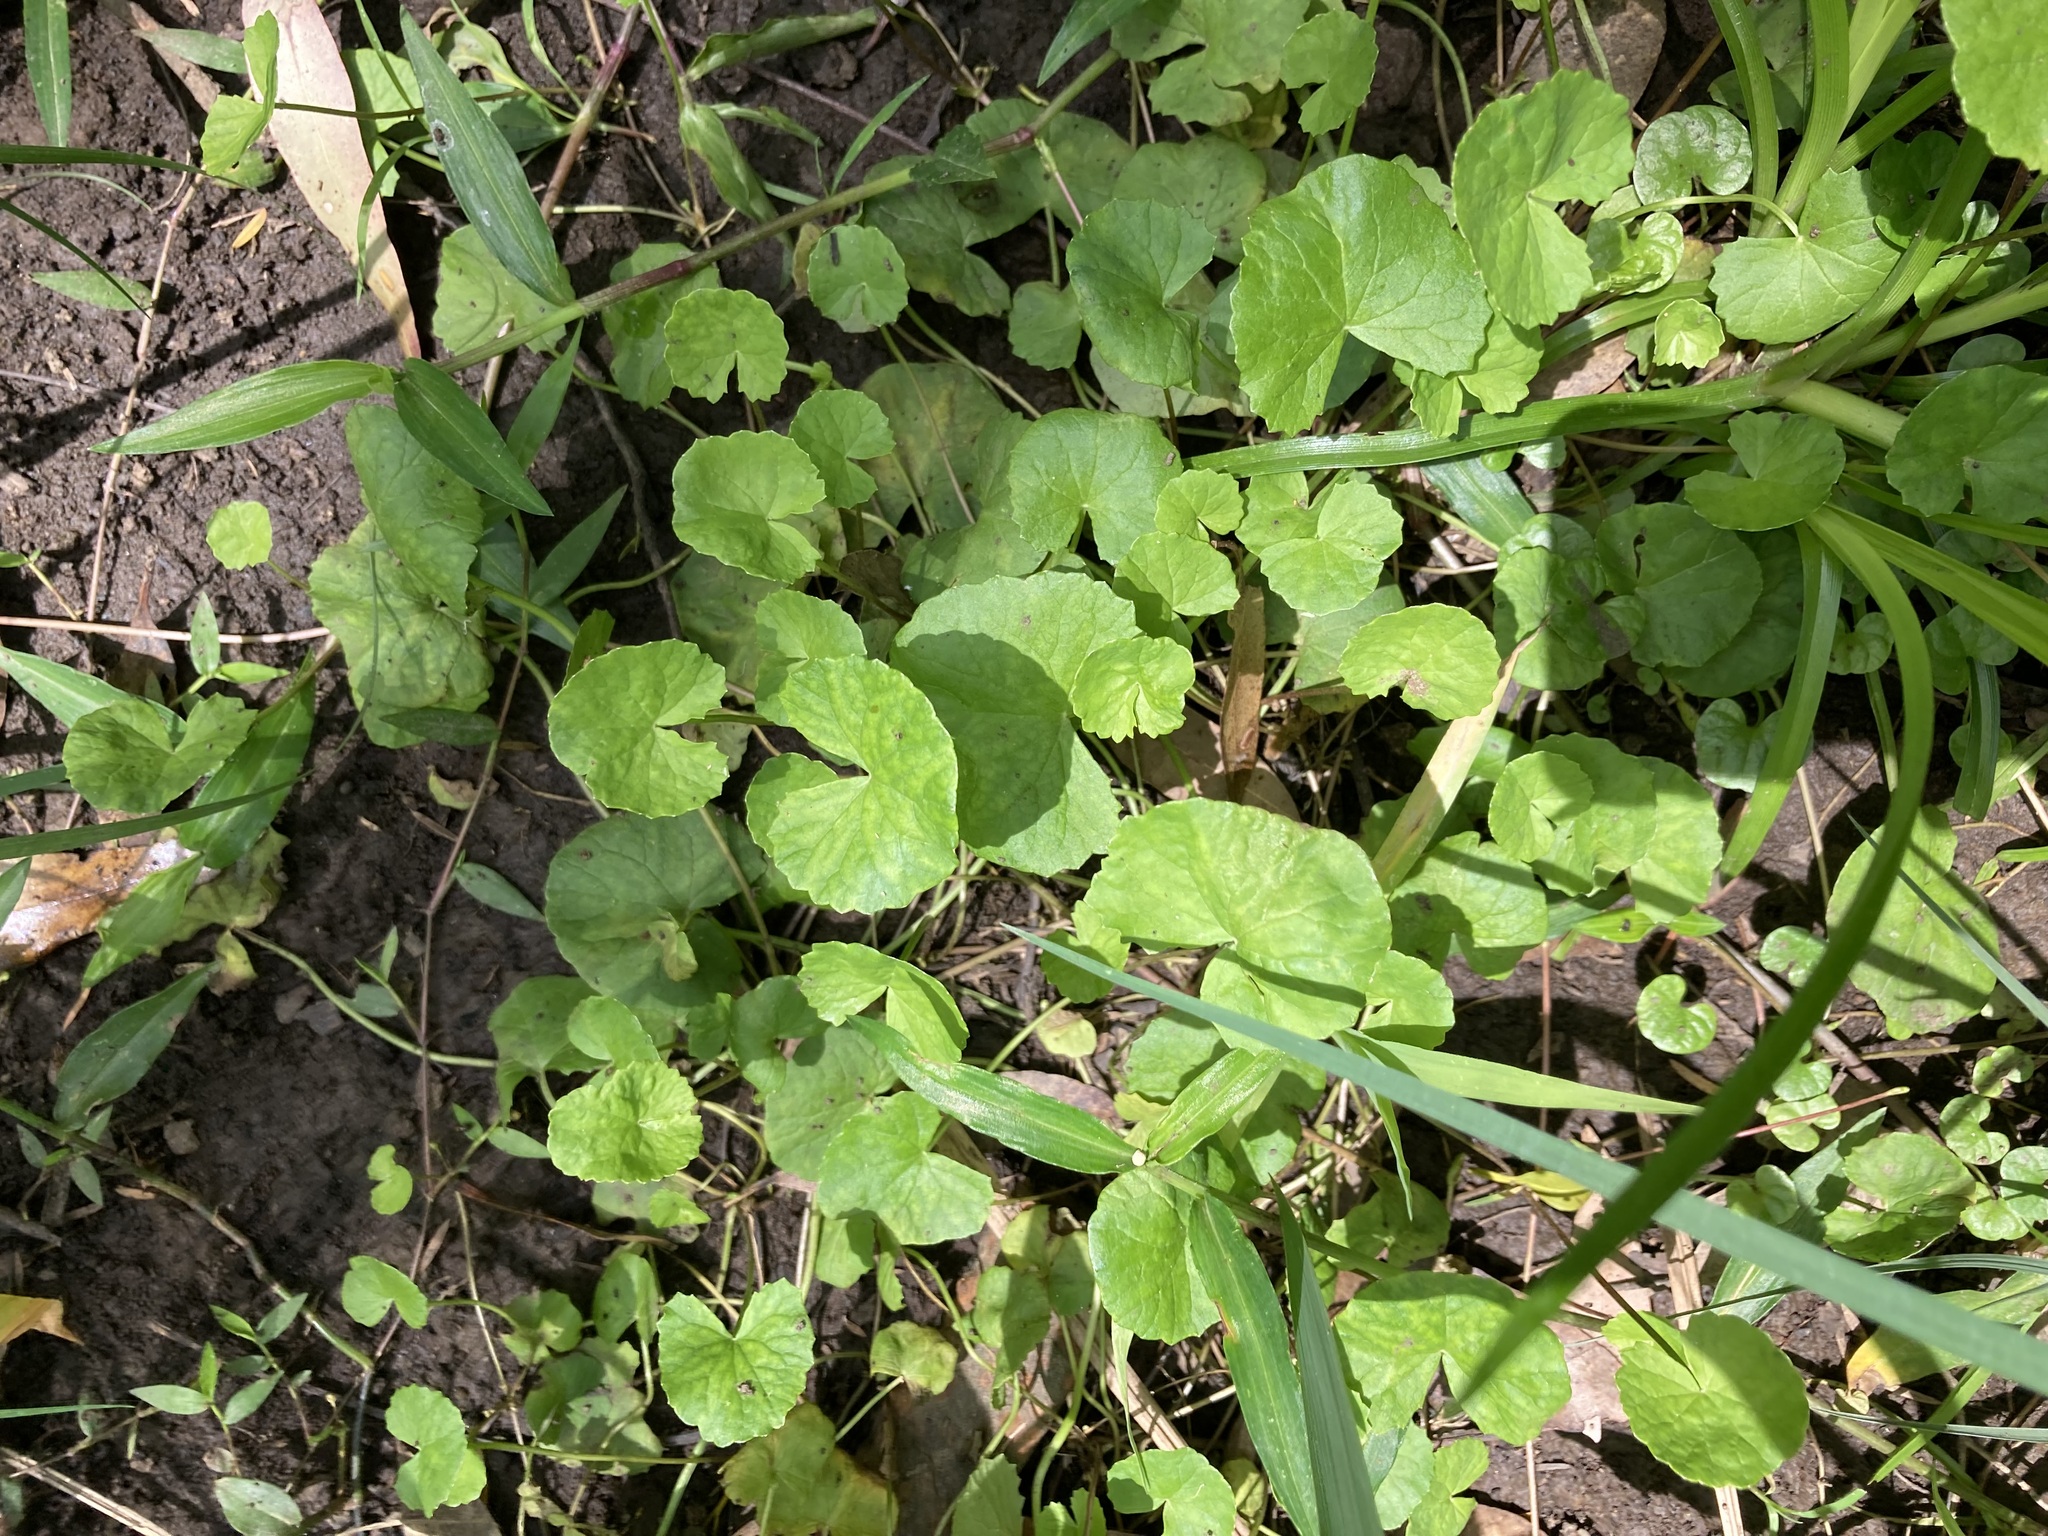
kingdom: Plantae
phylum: Tracheophyta
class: Magnoliopsida
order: Apiales
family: Apiaceae
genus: Centella
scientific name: Centella asiatica
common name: Spadeleaf
